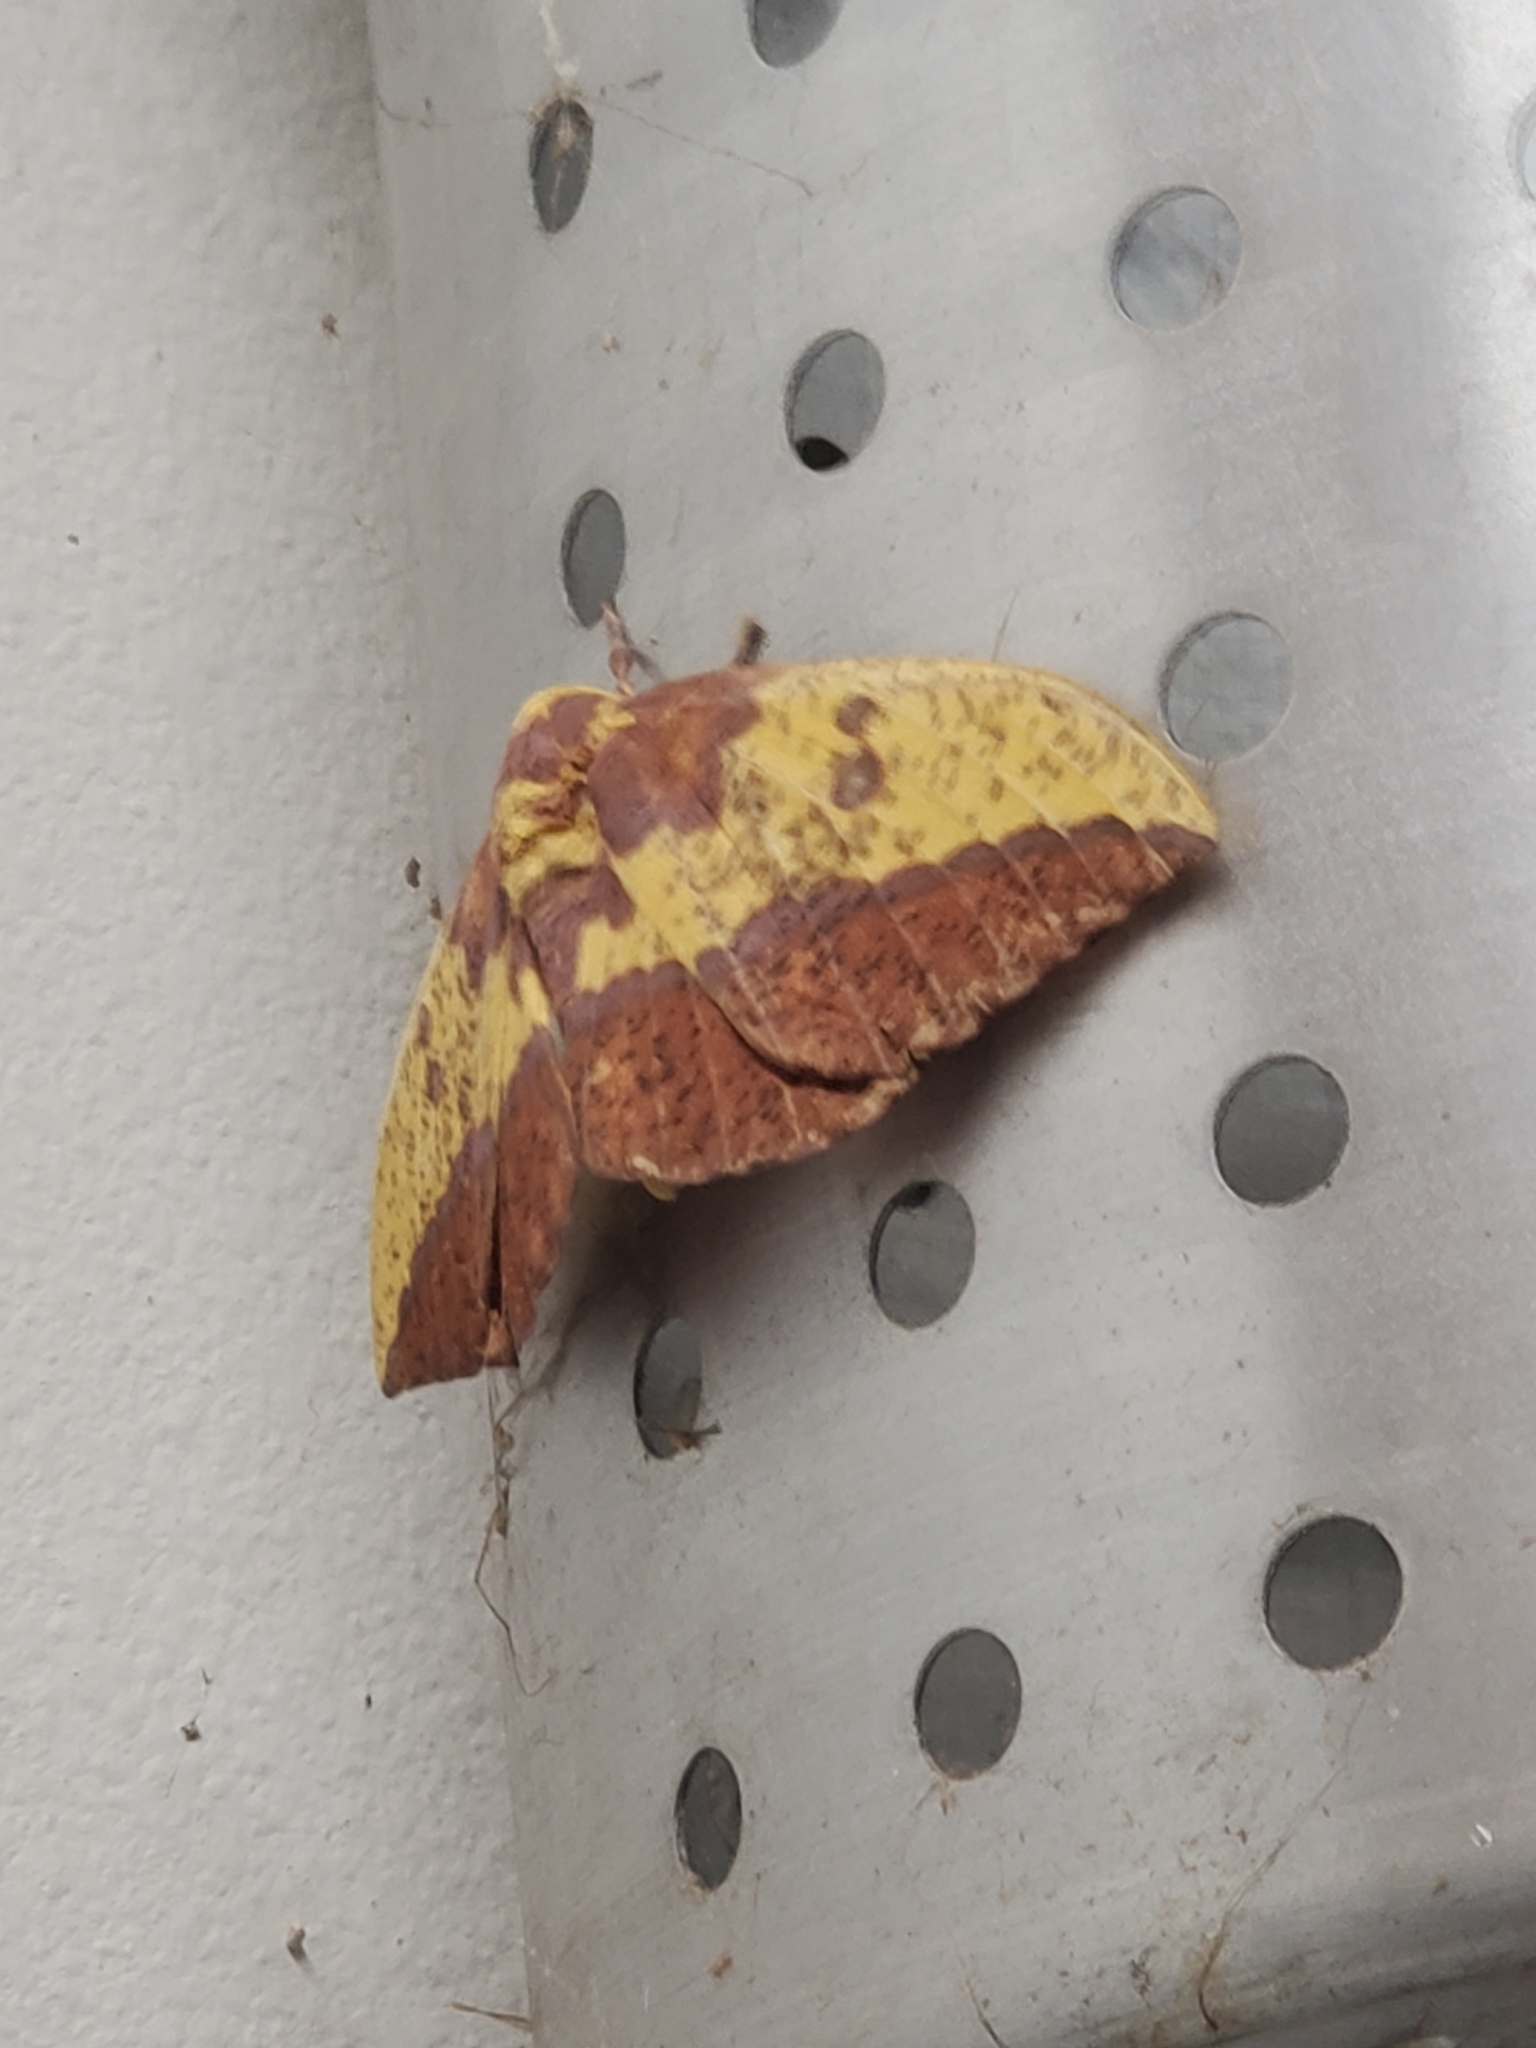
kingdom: Animalia
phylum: Arthropoda
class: Insecta
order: Lepidoptera
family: Saturniidae
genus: Eacles
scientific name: Eacles imperialis
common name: Imperial moth
